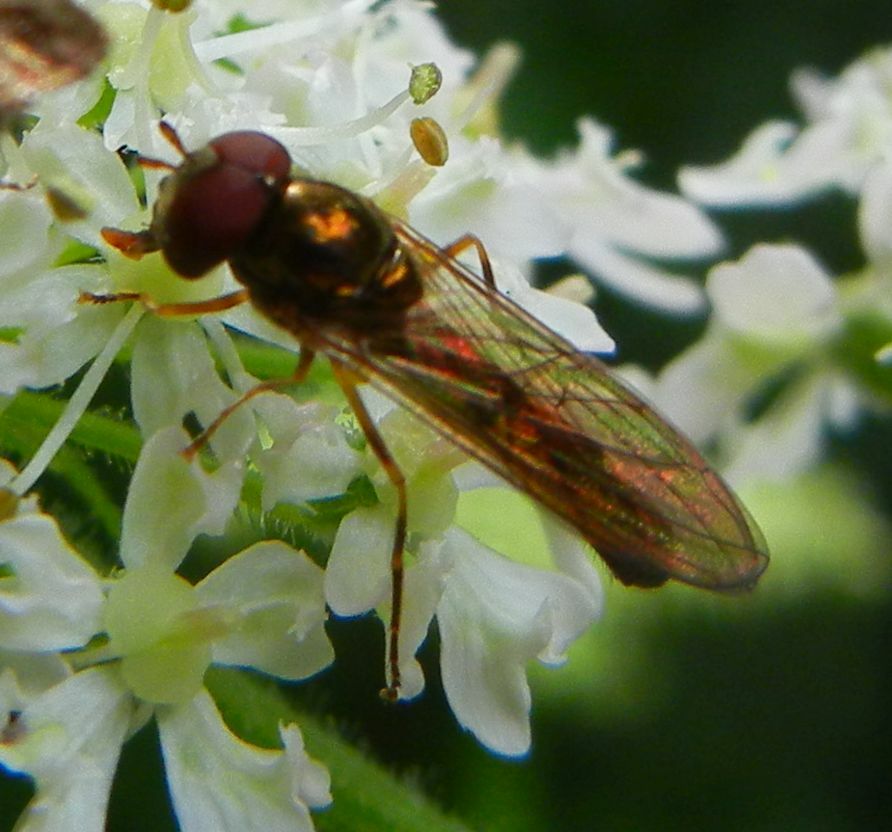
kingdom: Animalia
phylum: Arthropoda
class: Insecta
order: Diptera
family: Syrphidae
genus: Melanostoma
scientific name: Melanostoma scalare
